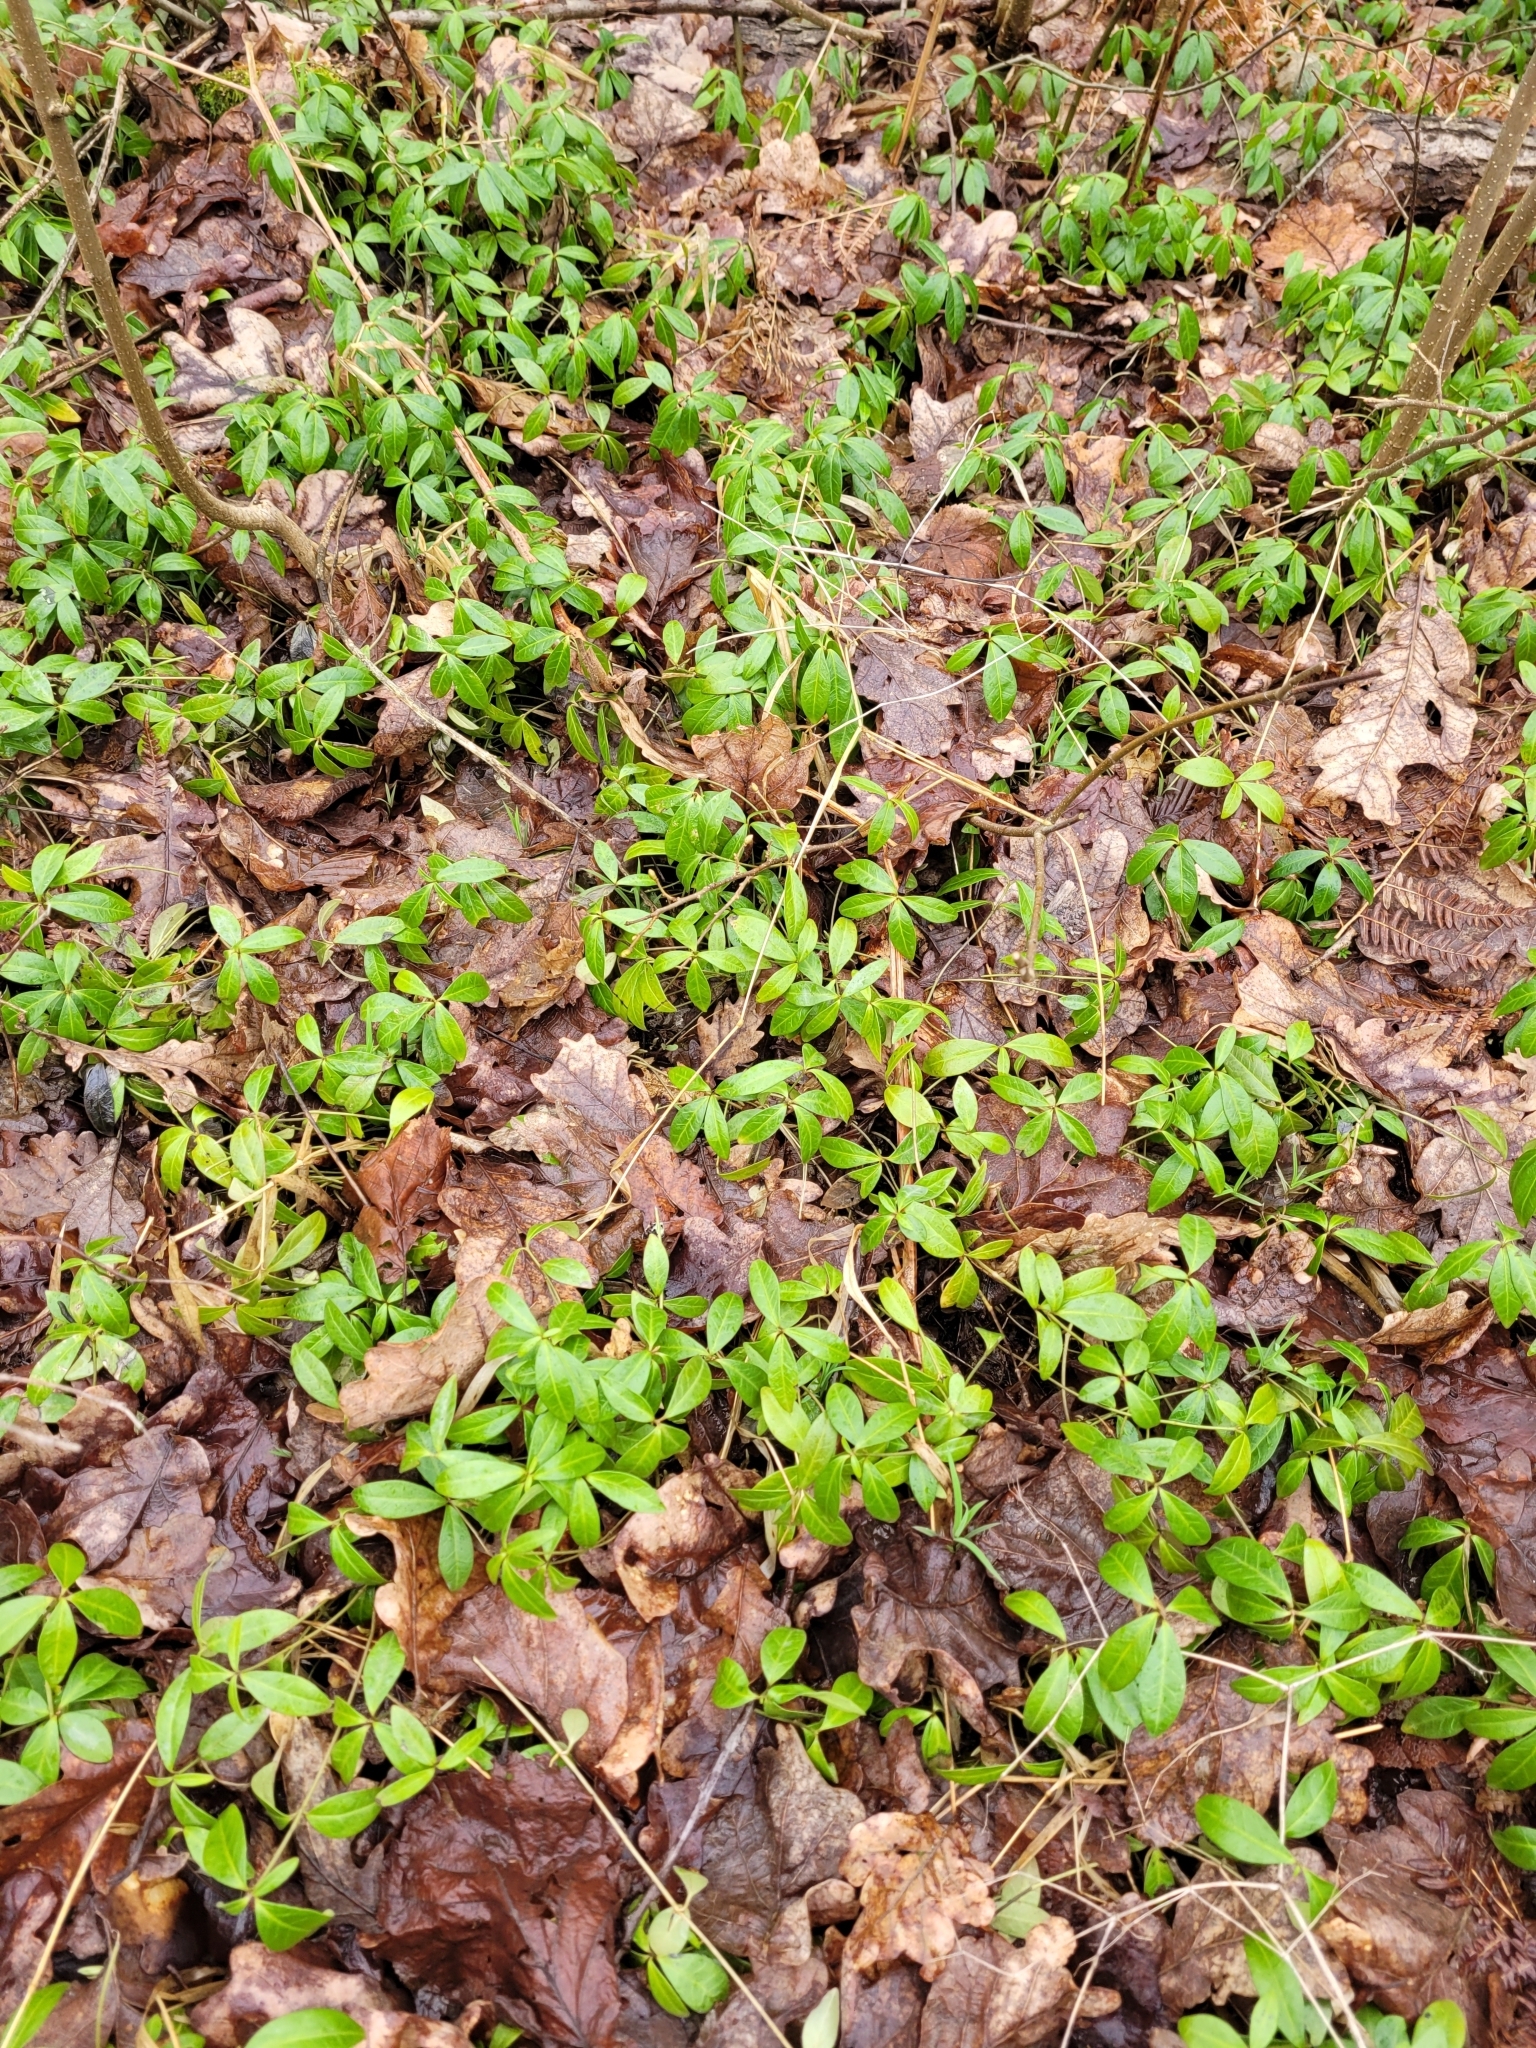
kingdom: Plantae
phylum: Tracheophyta
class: Magnoliopsida
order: Gentianales
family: Apocynaceae
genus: Vinca
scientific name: Vinca minor
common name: Lesser periwinkle
